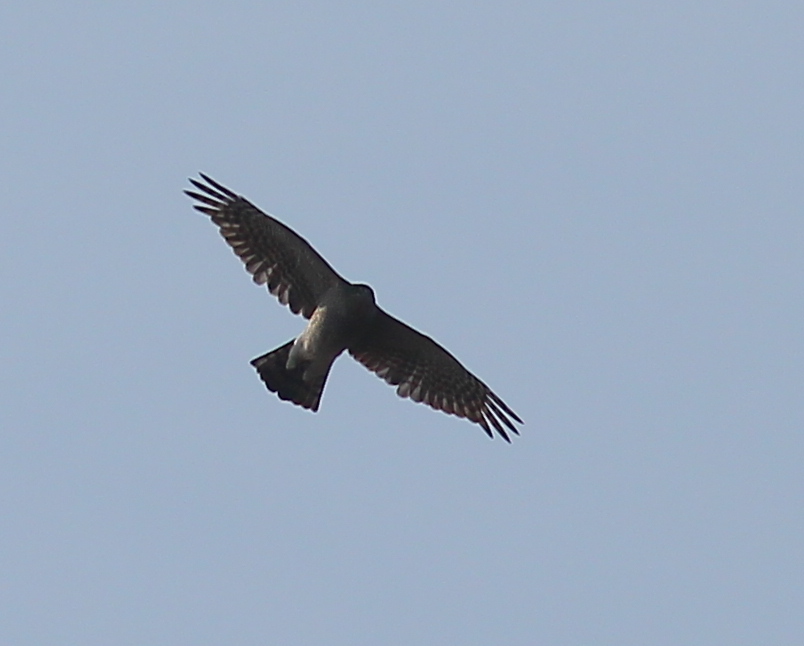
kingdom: Animalia
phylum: Chordata
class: Aves
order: Accipitriformes
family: Accipitridae
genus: Accipiter
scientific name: Accipiter nisus
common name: Eurasian sparrowhawk
